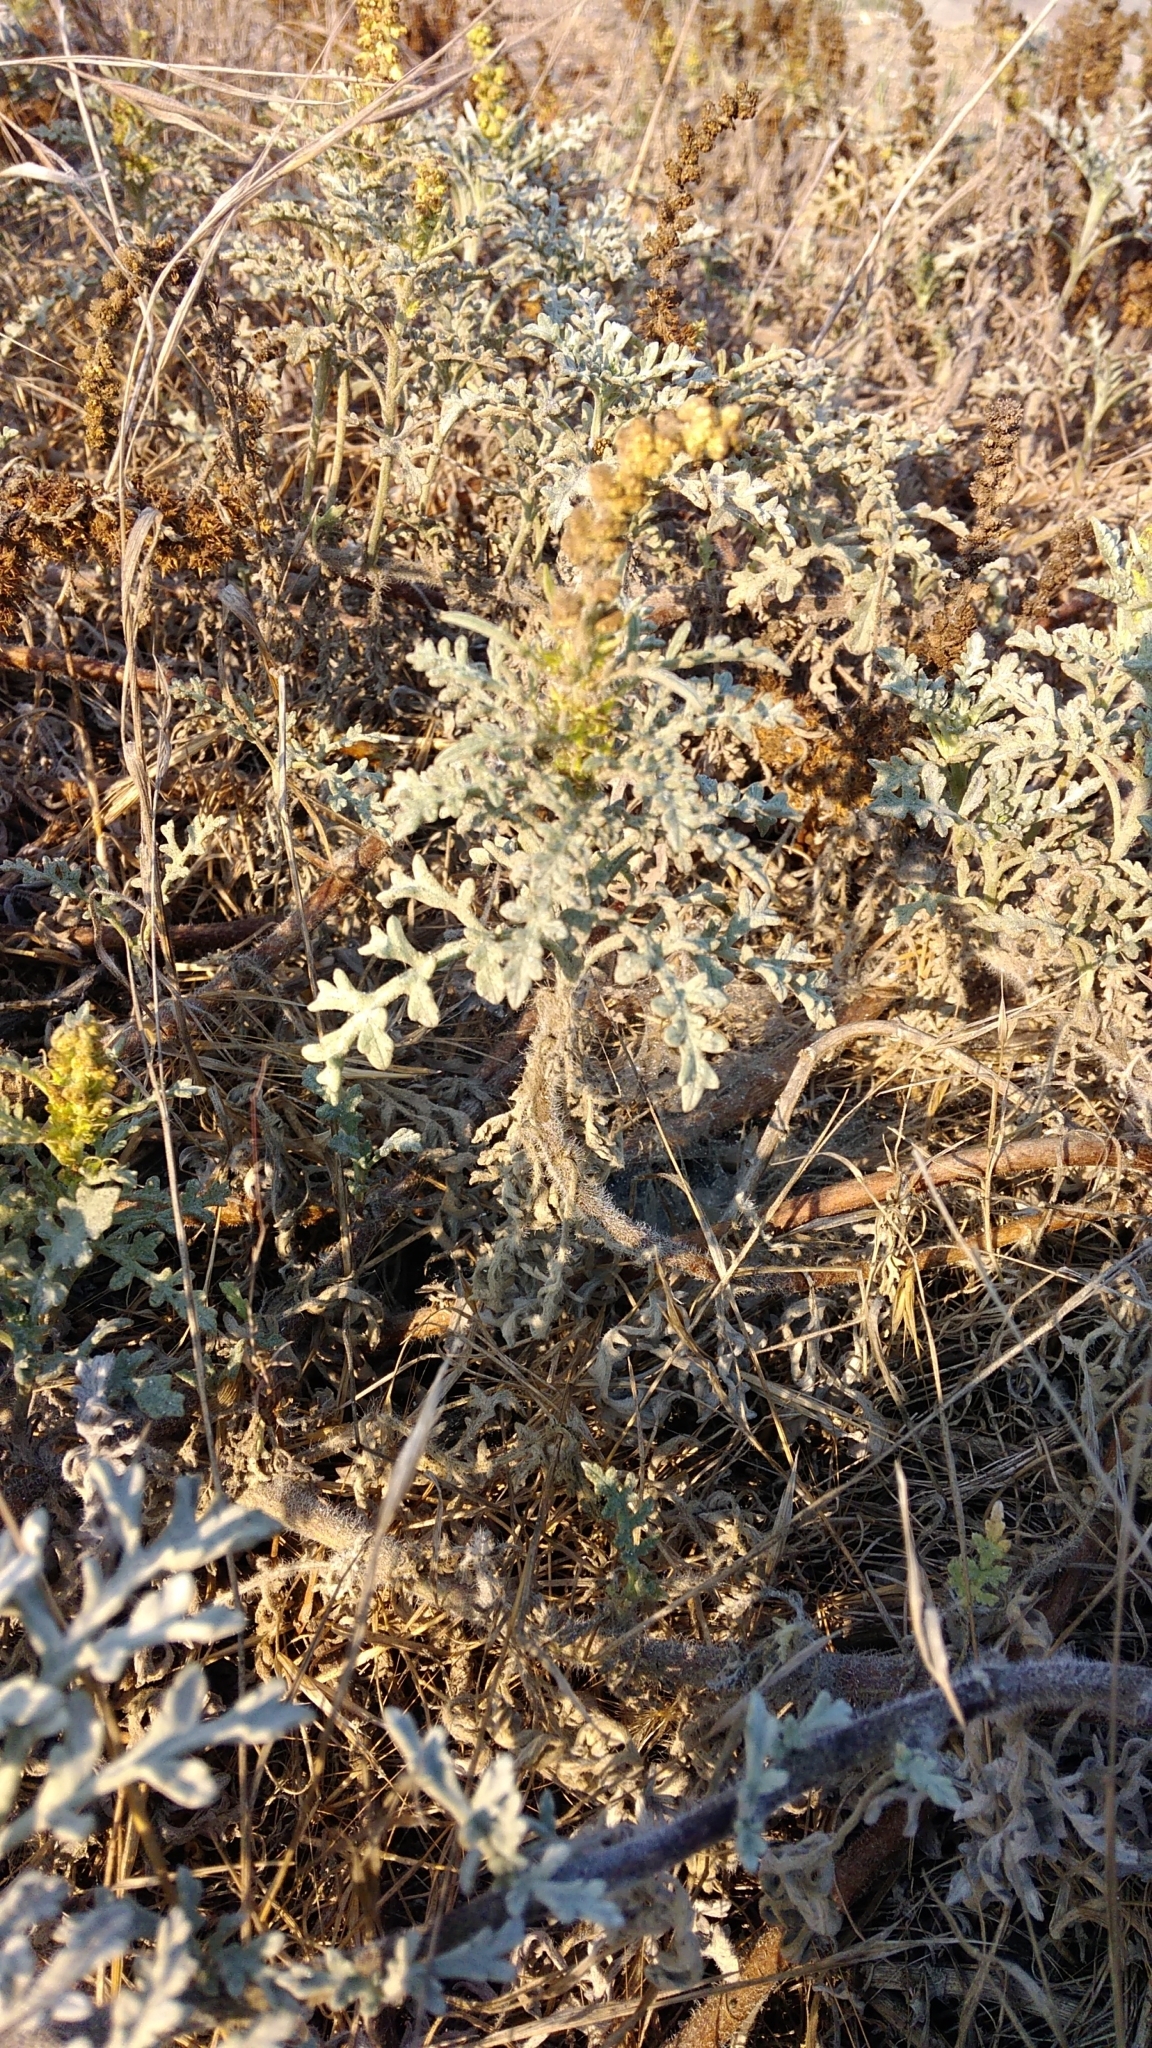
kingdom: Plantae
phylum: Tracheophyta
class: Magnoliopsida
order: Asterales
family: Asteraceae
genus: Ambrosia
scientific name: Ambrosia chamissonis
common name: Beachbur
